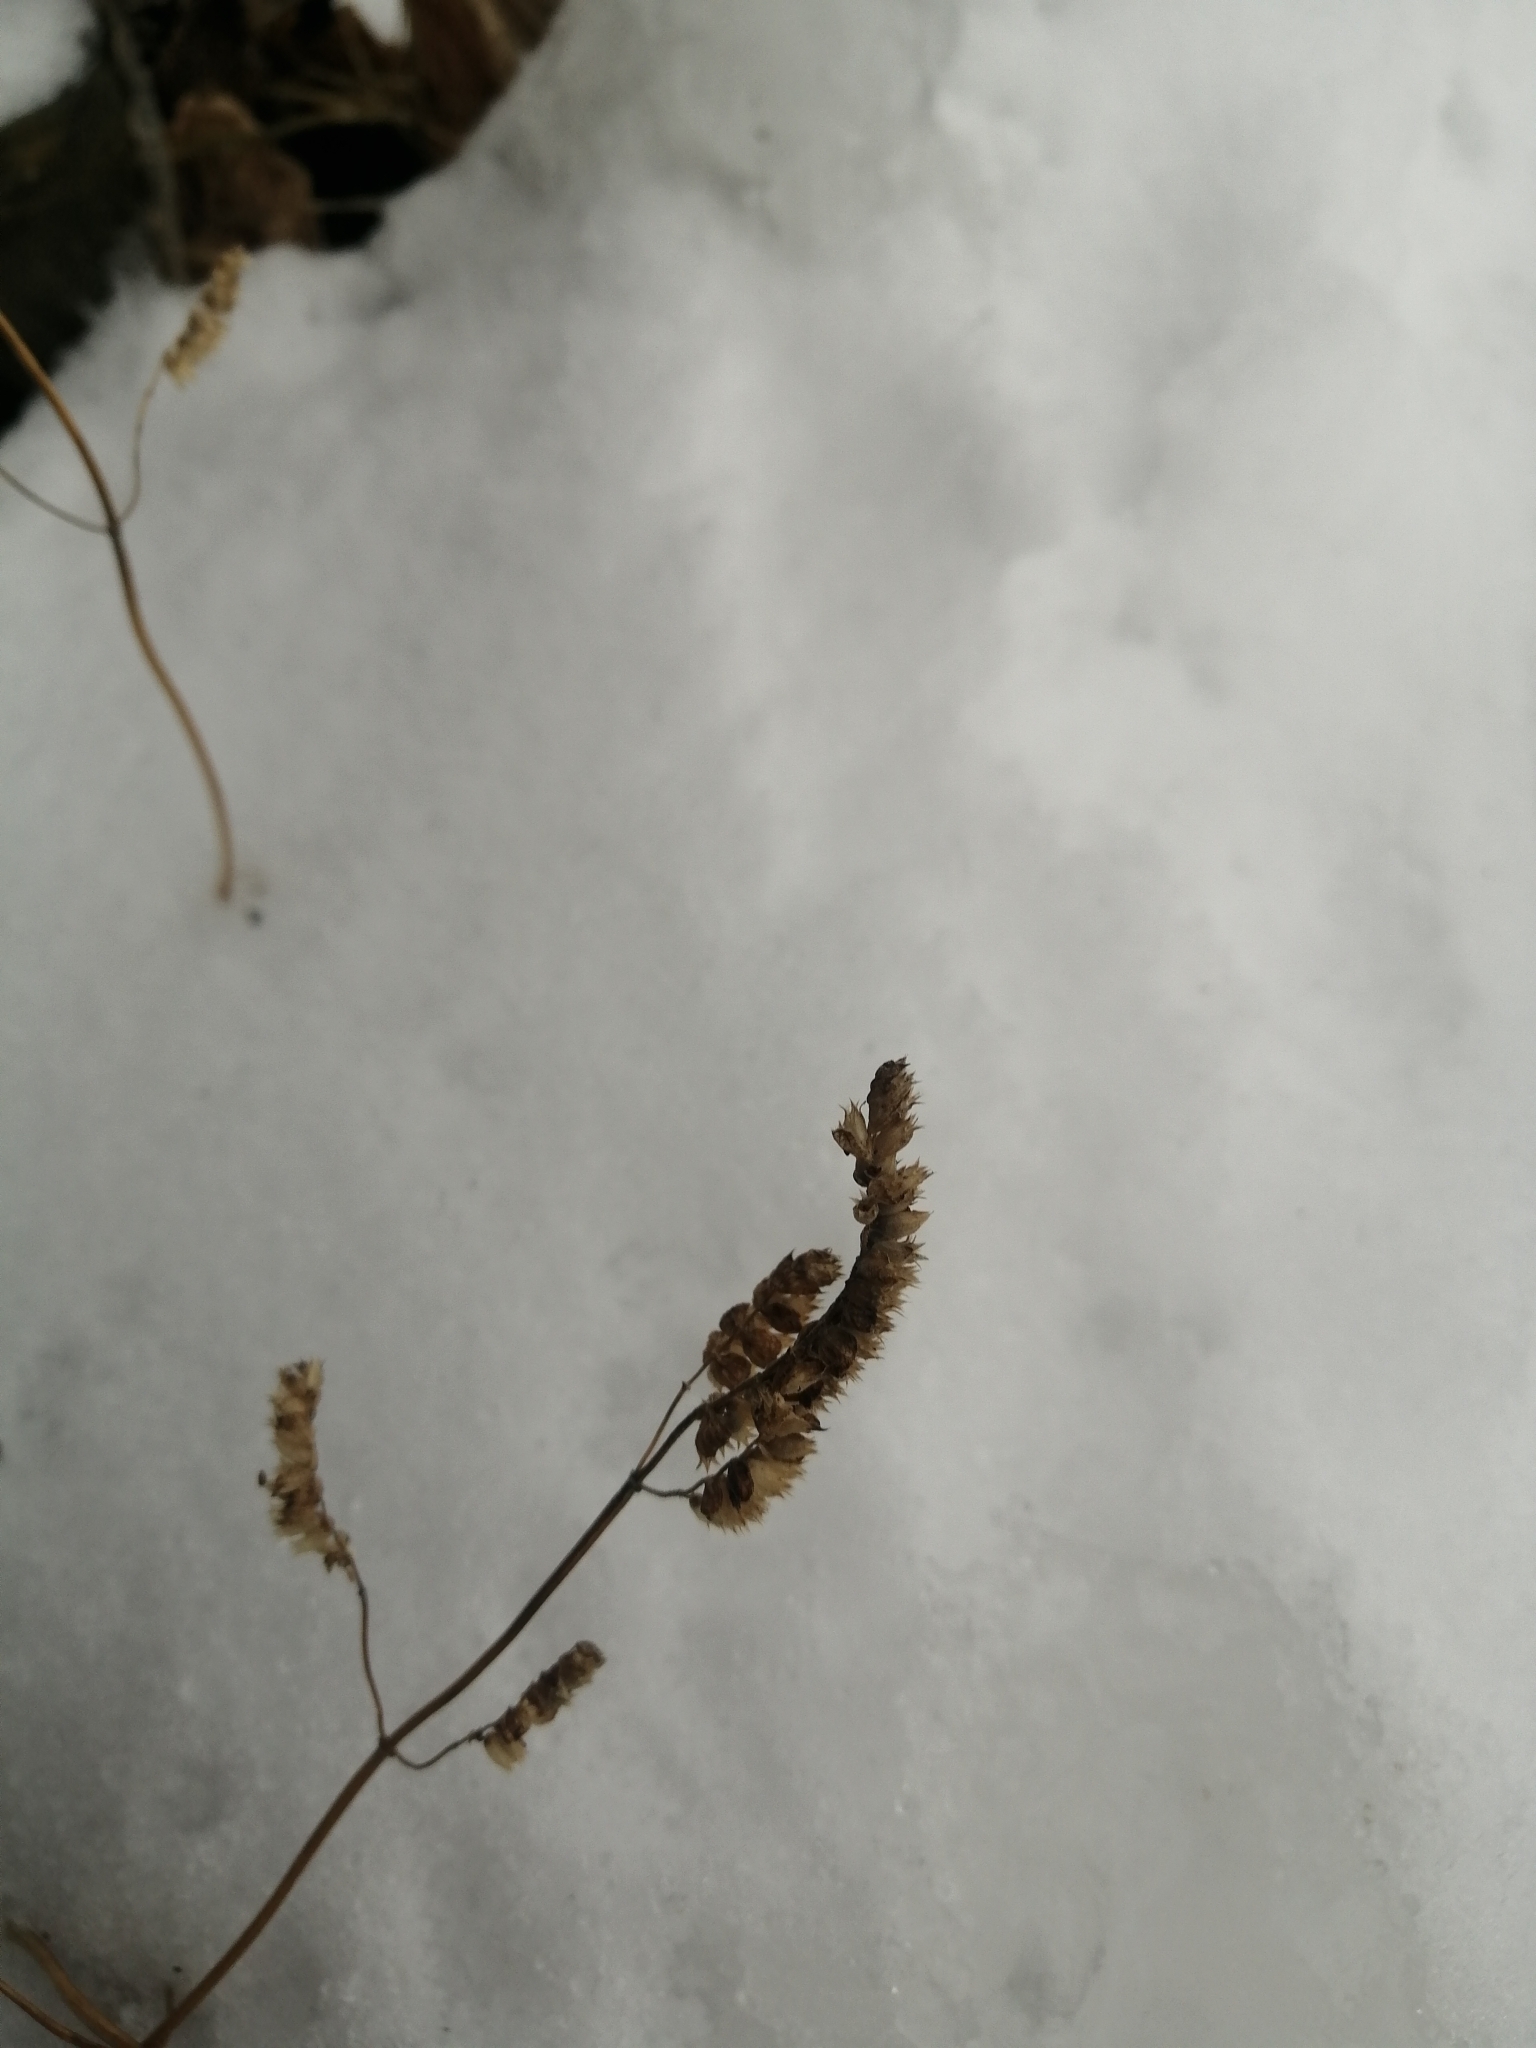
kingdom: Plantae
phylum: Tracheophyta
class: Magnoliopsida
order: Lamiales
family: Lamiaceae
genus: Elsholtzia
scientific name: Elsholtzia ciliata
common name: Ciliate elsholtzia
